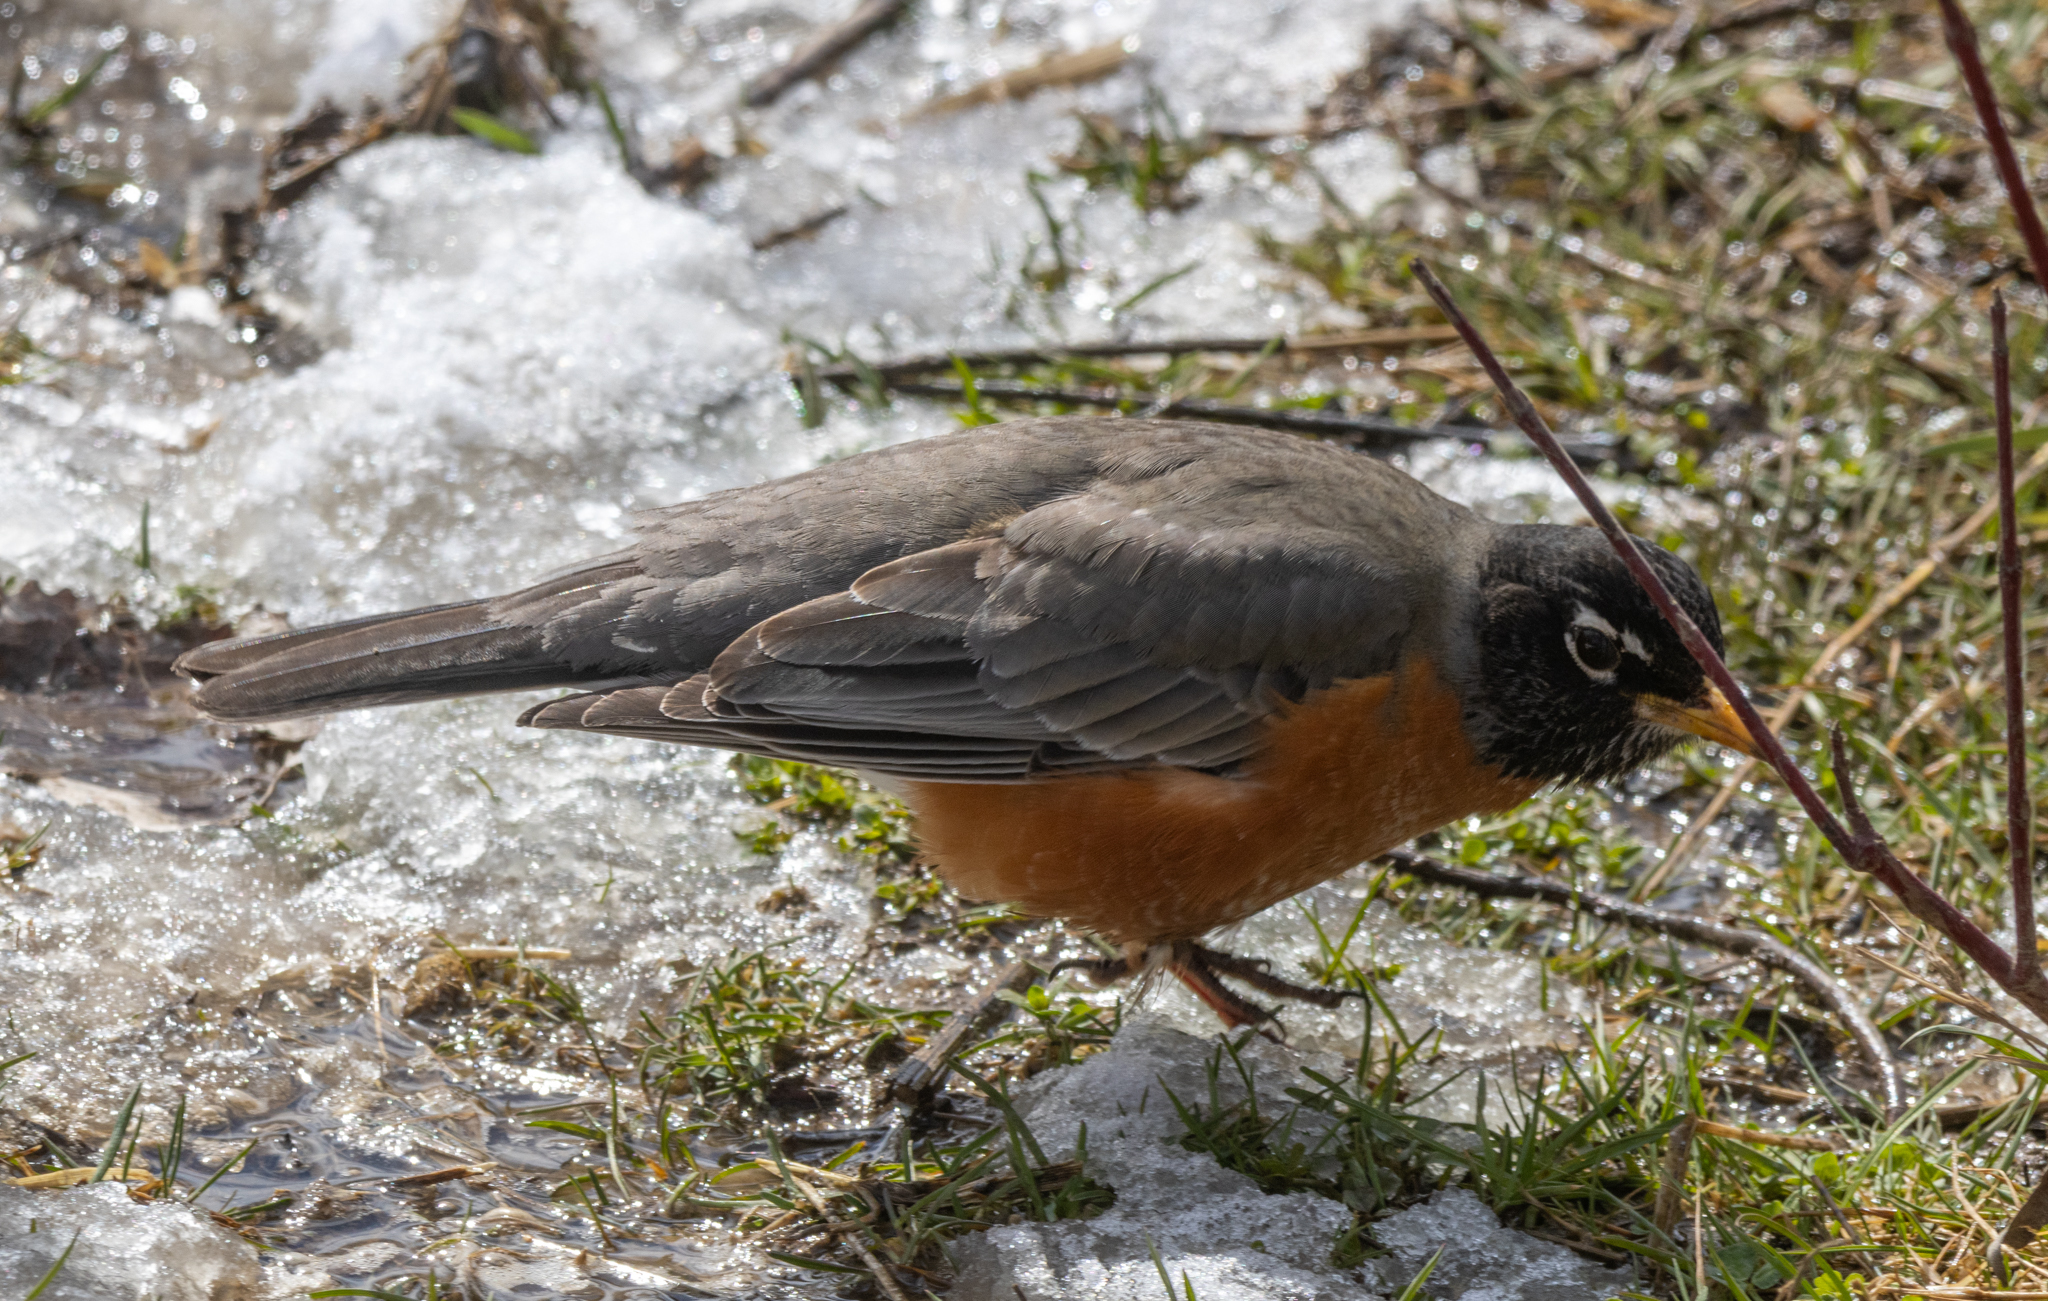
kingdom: Animalia
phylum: Chordata
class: Aves
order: Passeriformes
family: Turdidae
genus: Turdus
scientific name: Turdus migratorius
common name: American robin
